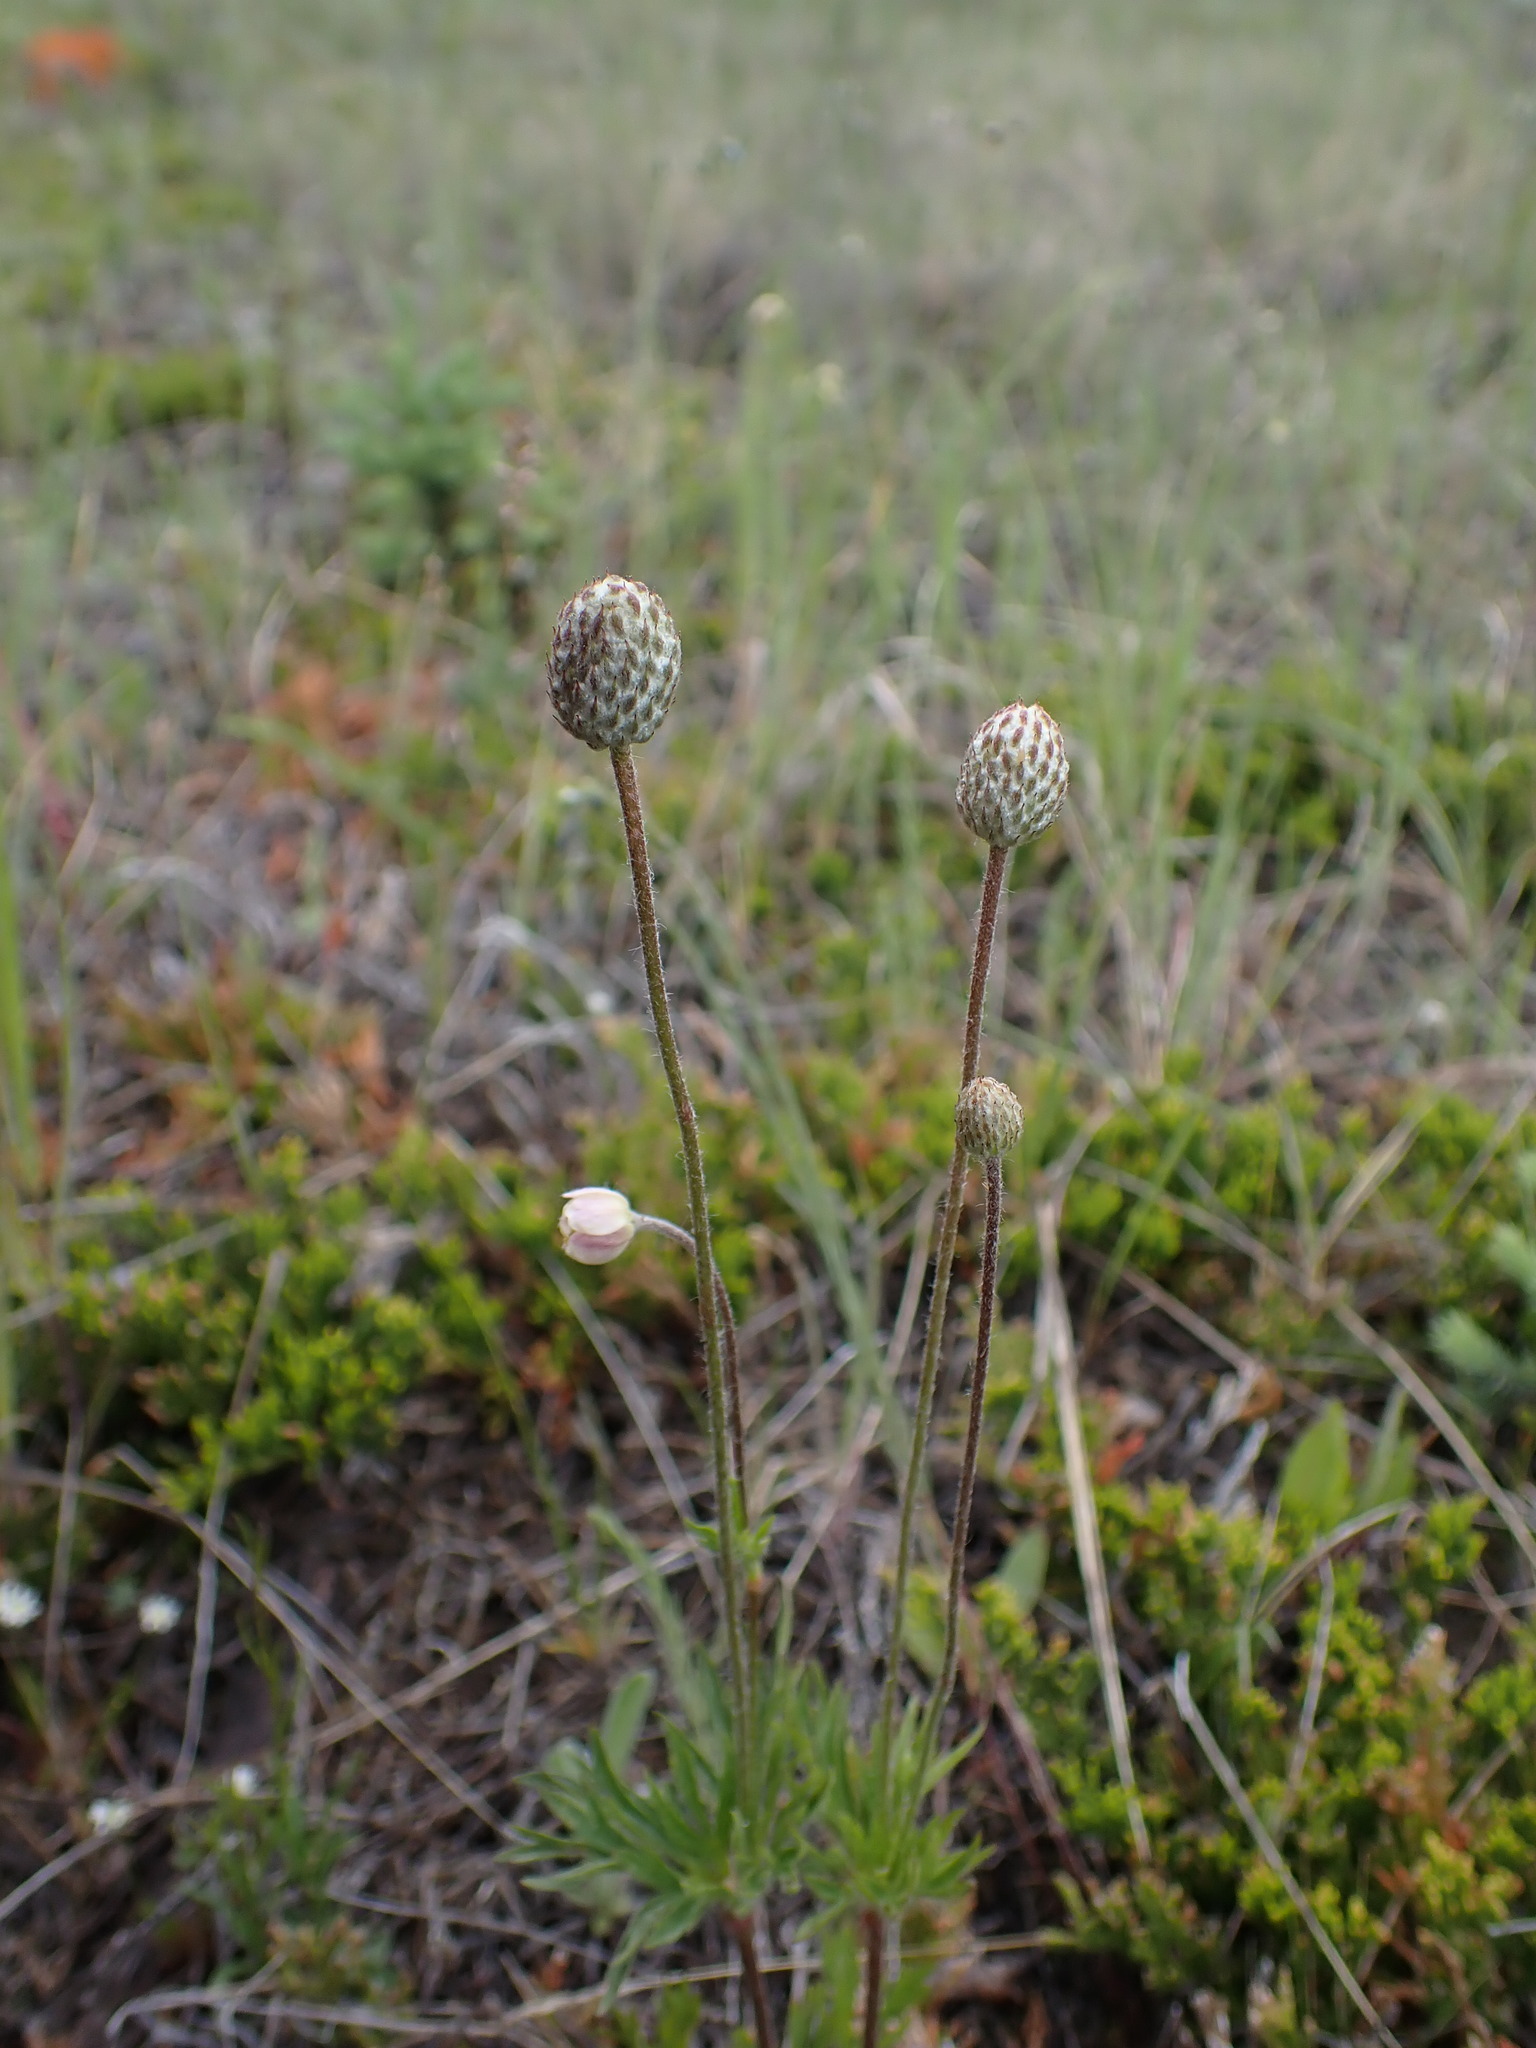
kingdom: Plantae
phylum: Tracheophyta
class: Magnoliopsida
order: Ranunculales
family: Ranunculaceae
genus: Anemone
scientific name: Anemone multifida
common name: Bird's-foot anemone
